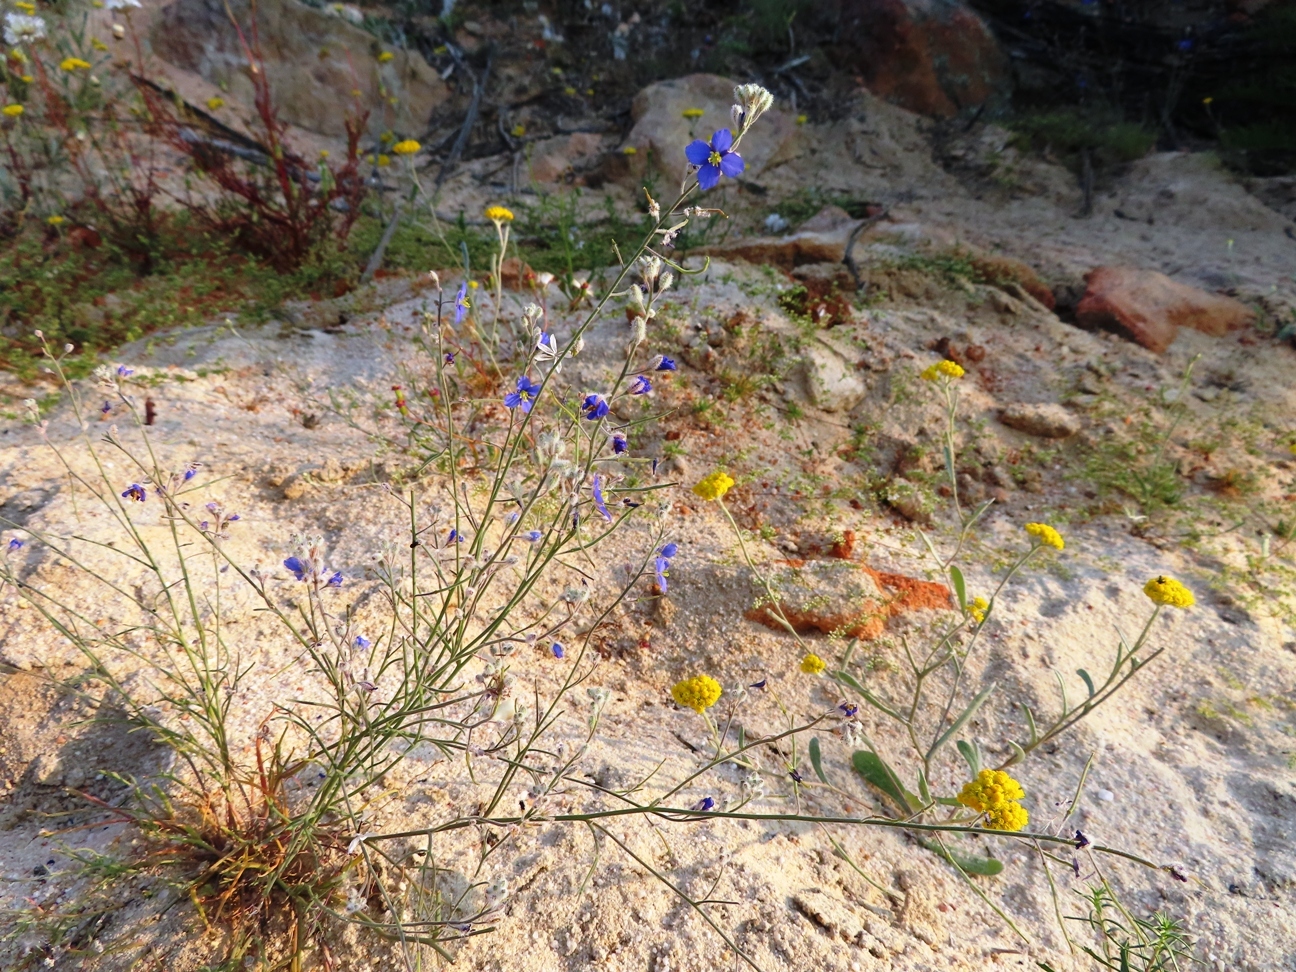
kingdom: Plantae
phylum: Tracheophyta
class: Magnoliopsida
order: Brassicales
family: Brassicaceae
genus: Heliophila
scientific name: Heliophila arenaria
